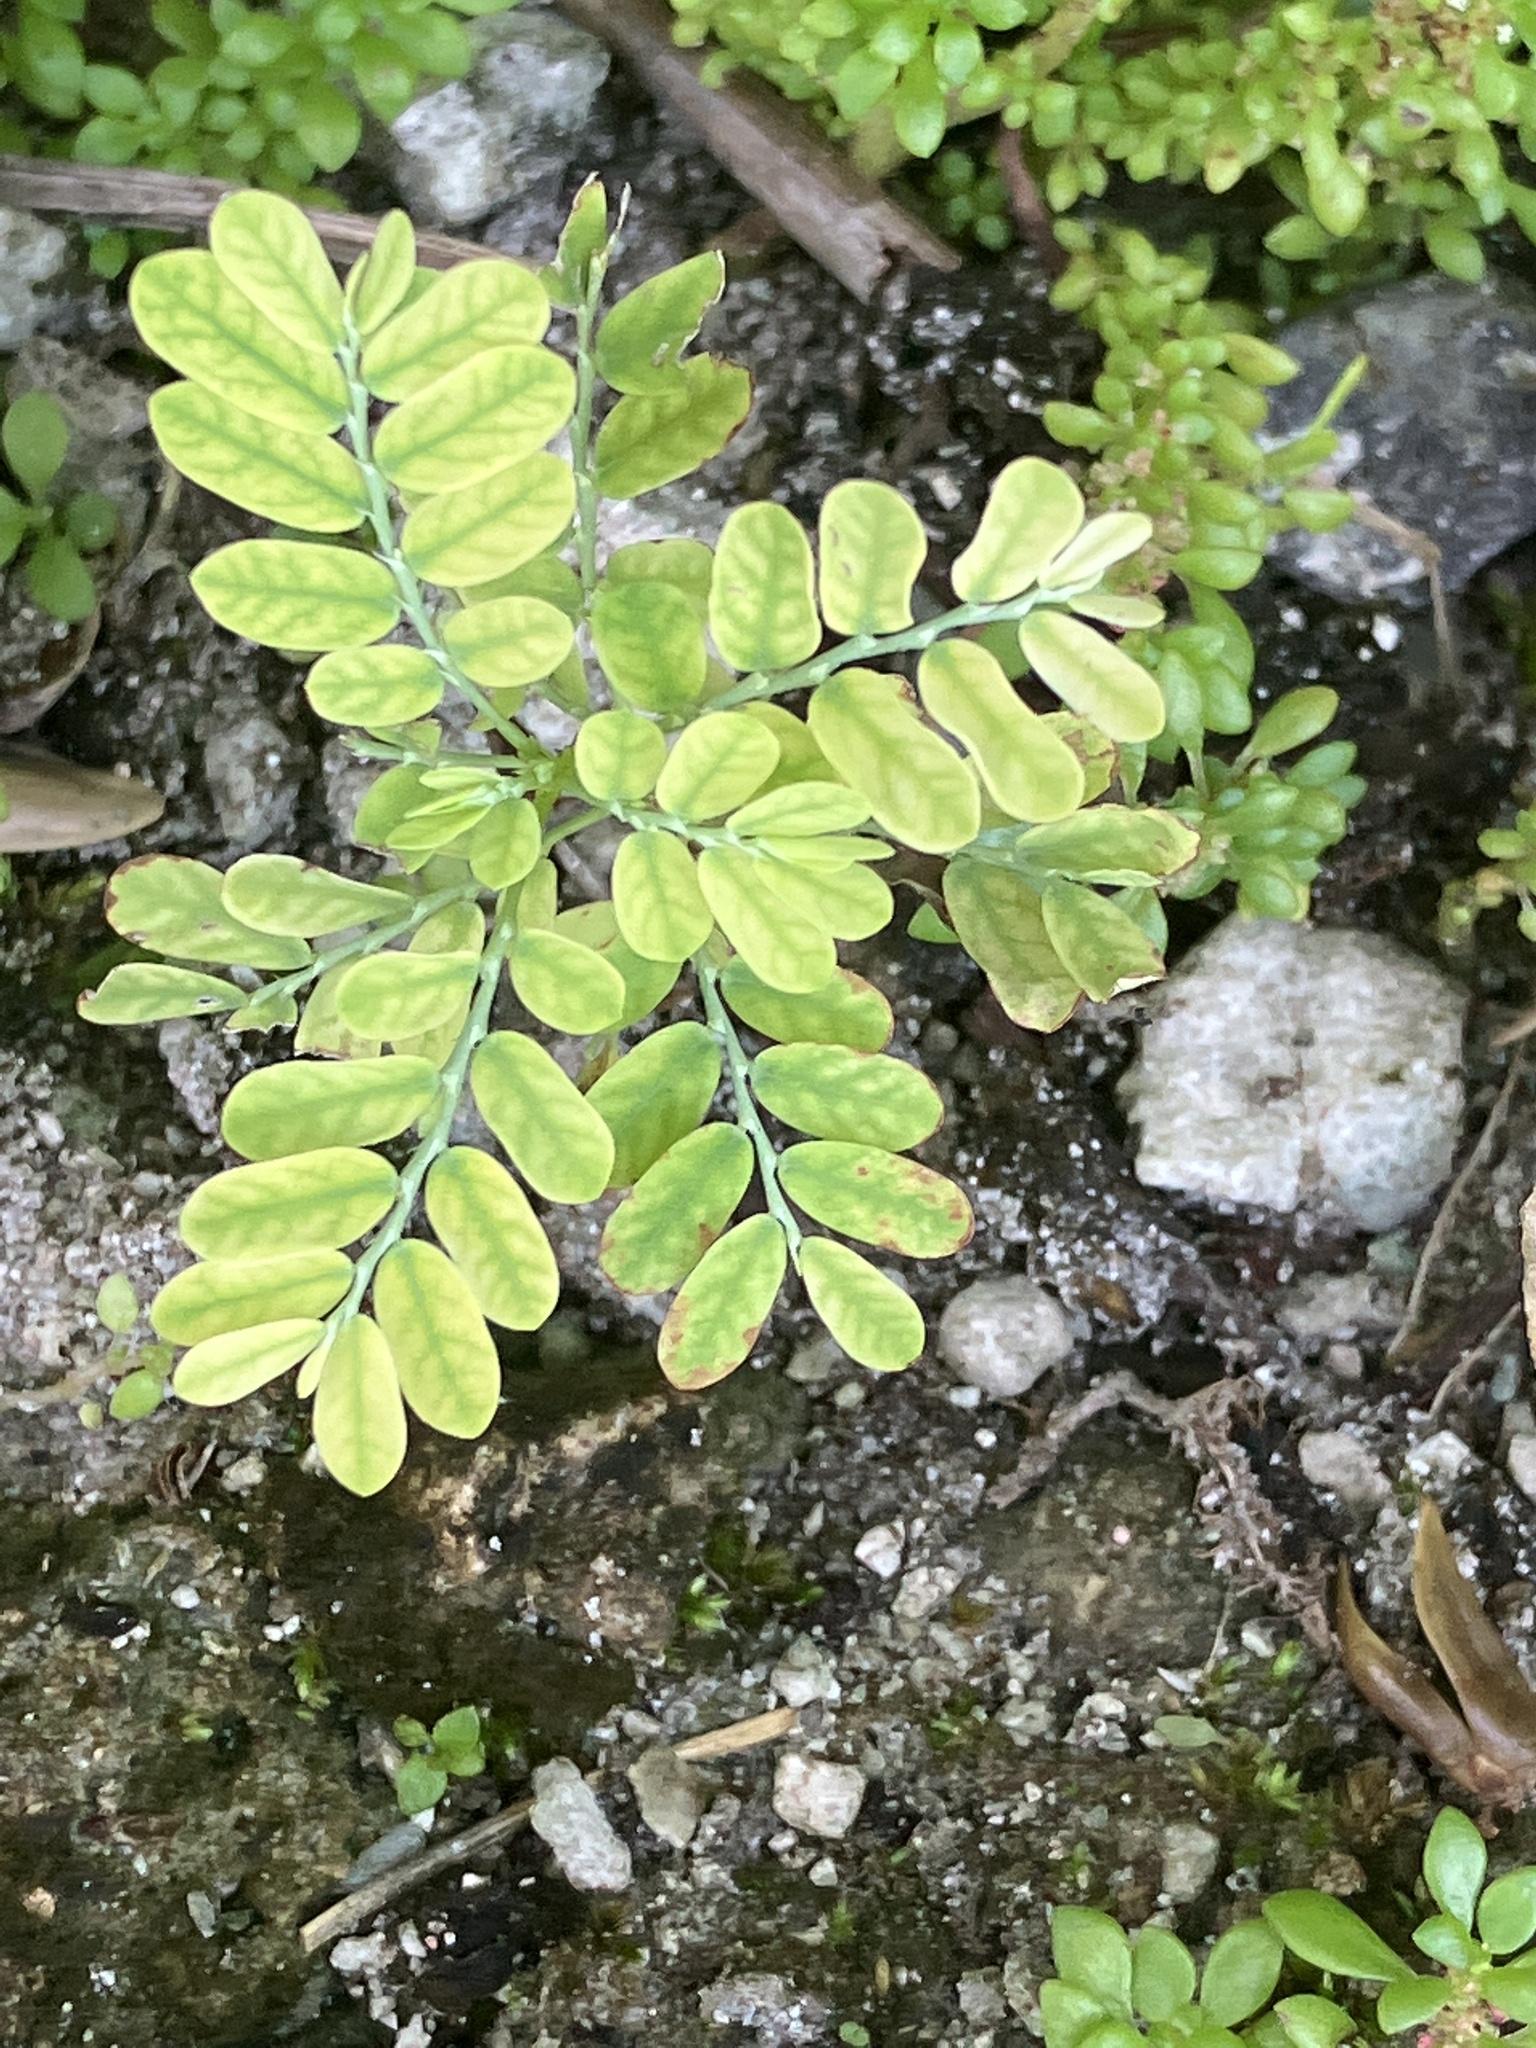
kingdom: Plantae
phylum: Tracheophyta
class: Magnoliopsida
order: Malpighiales
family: Phyllanthaceae
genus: Phyllanthus
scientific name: Phyllanthus amarus
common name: Carry me seed
